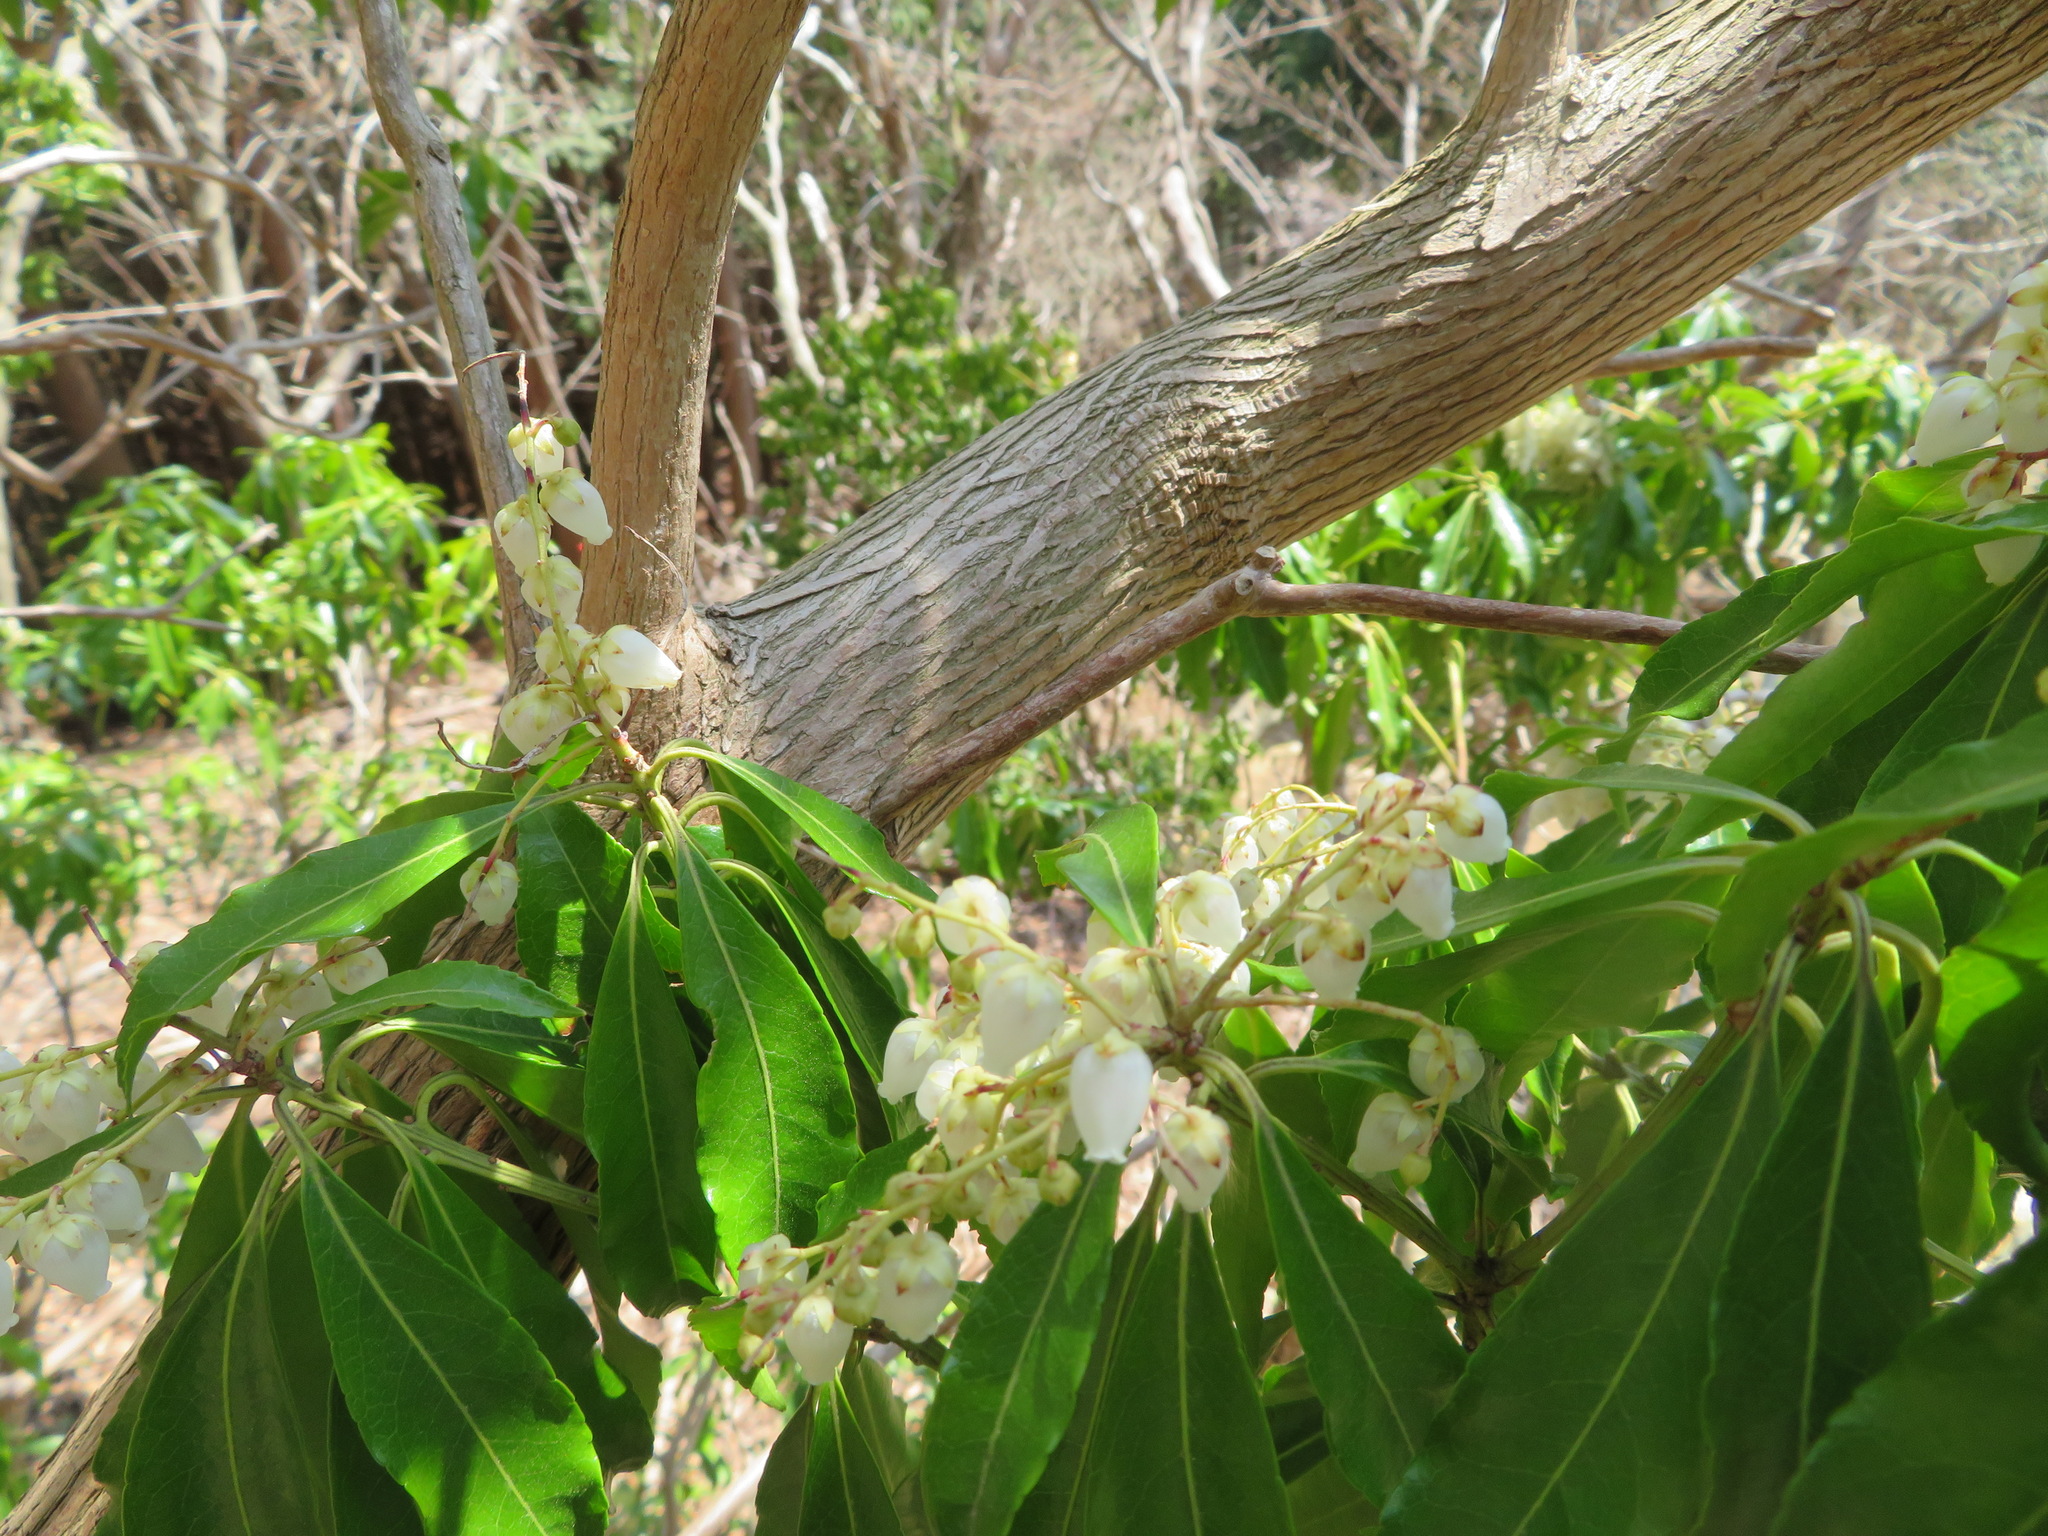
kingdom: Plantae
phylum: Tracheophyta
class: Magnoliopsida
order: Ericales
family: Ericaceae
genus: Pieris
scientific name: Pieris japonica
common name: Japanese pieris
